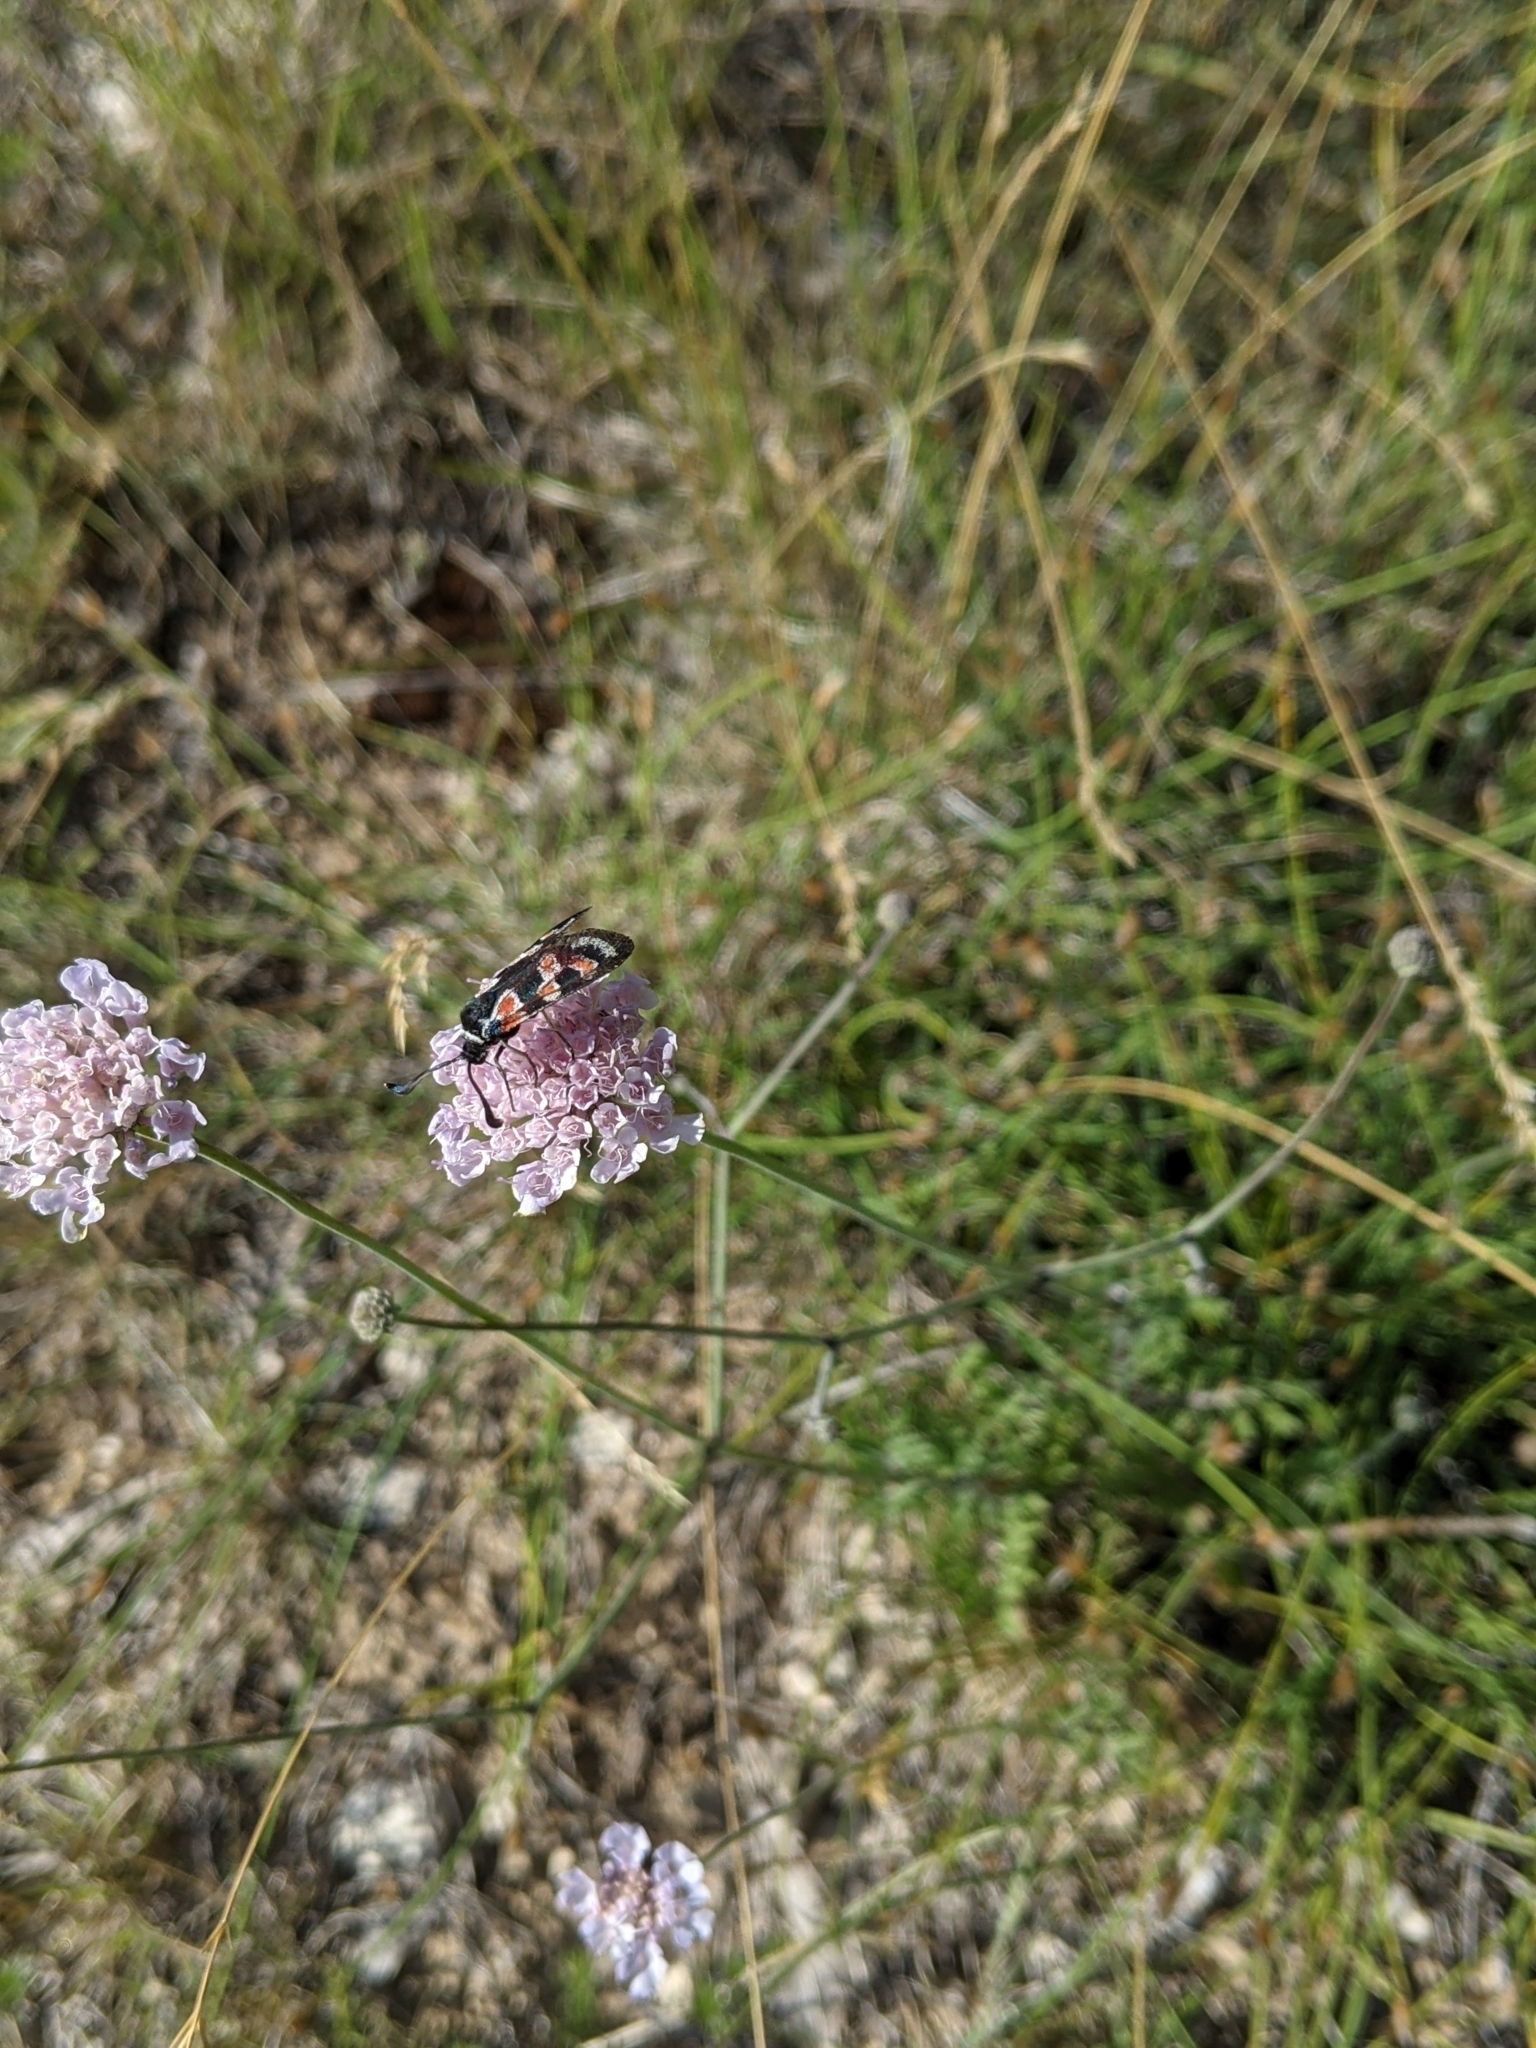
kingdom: Animalia
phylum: Arthropoda
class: Insecta
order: Lepidoptera
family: Zygaenidae
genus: Zygaena
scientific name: Zygaena occitanica
